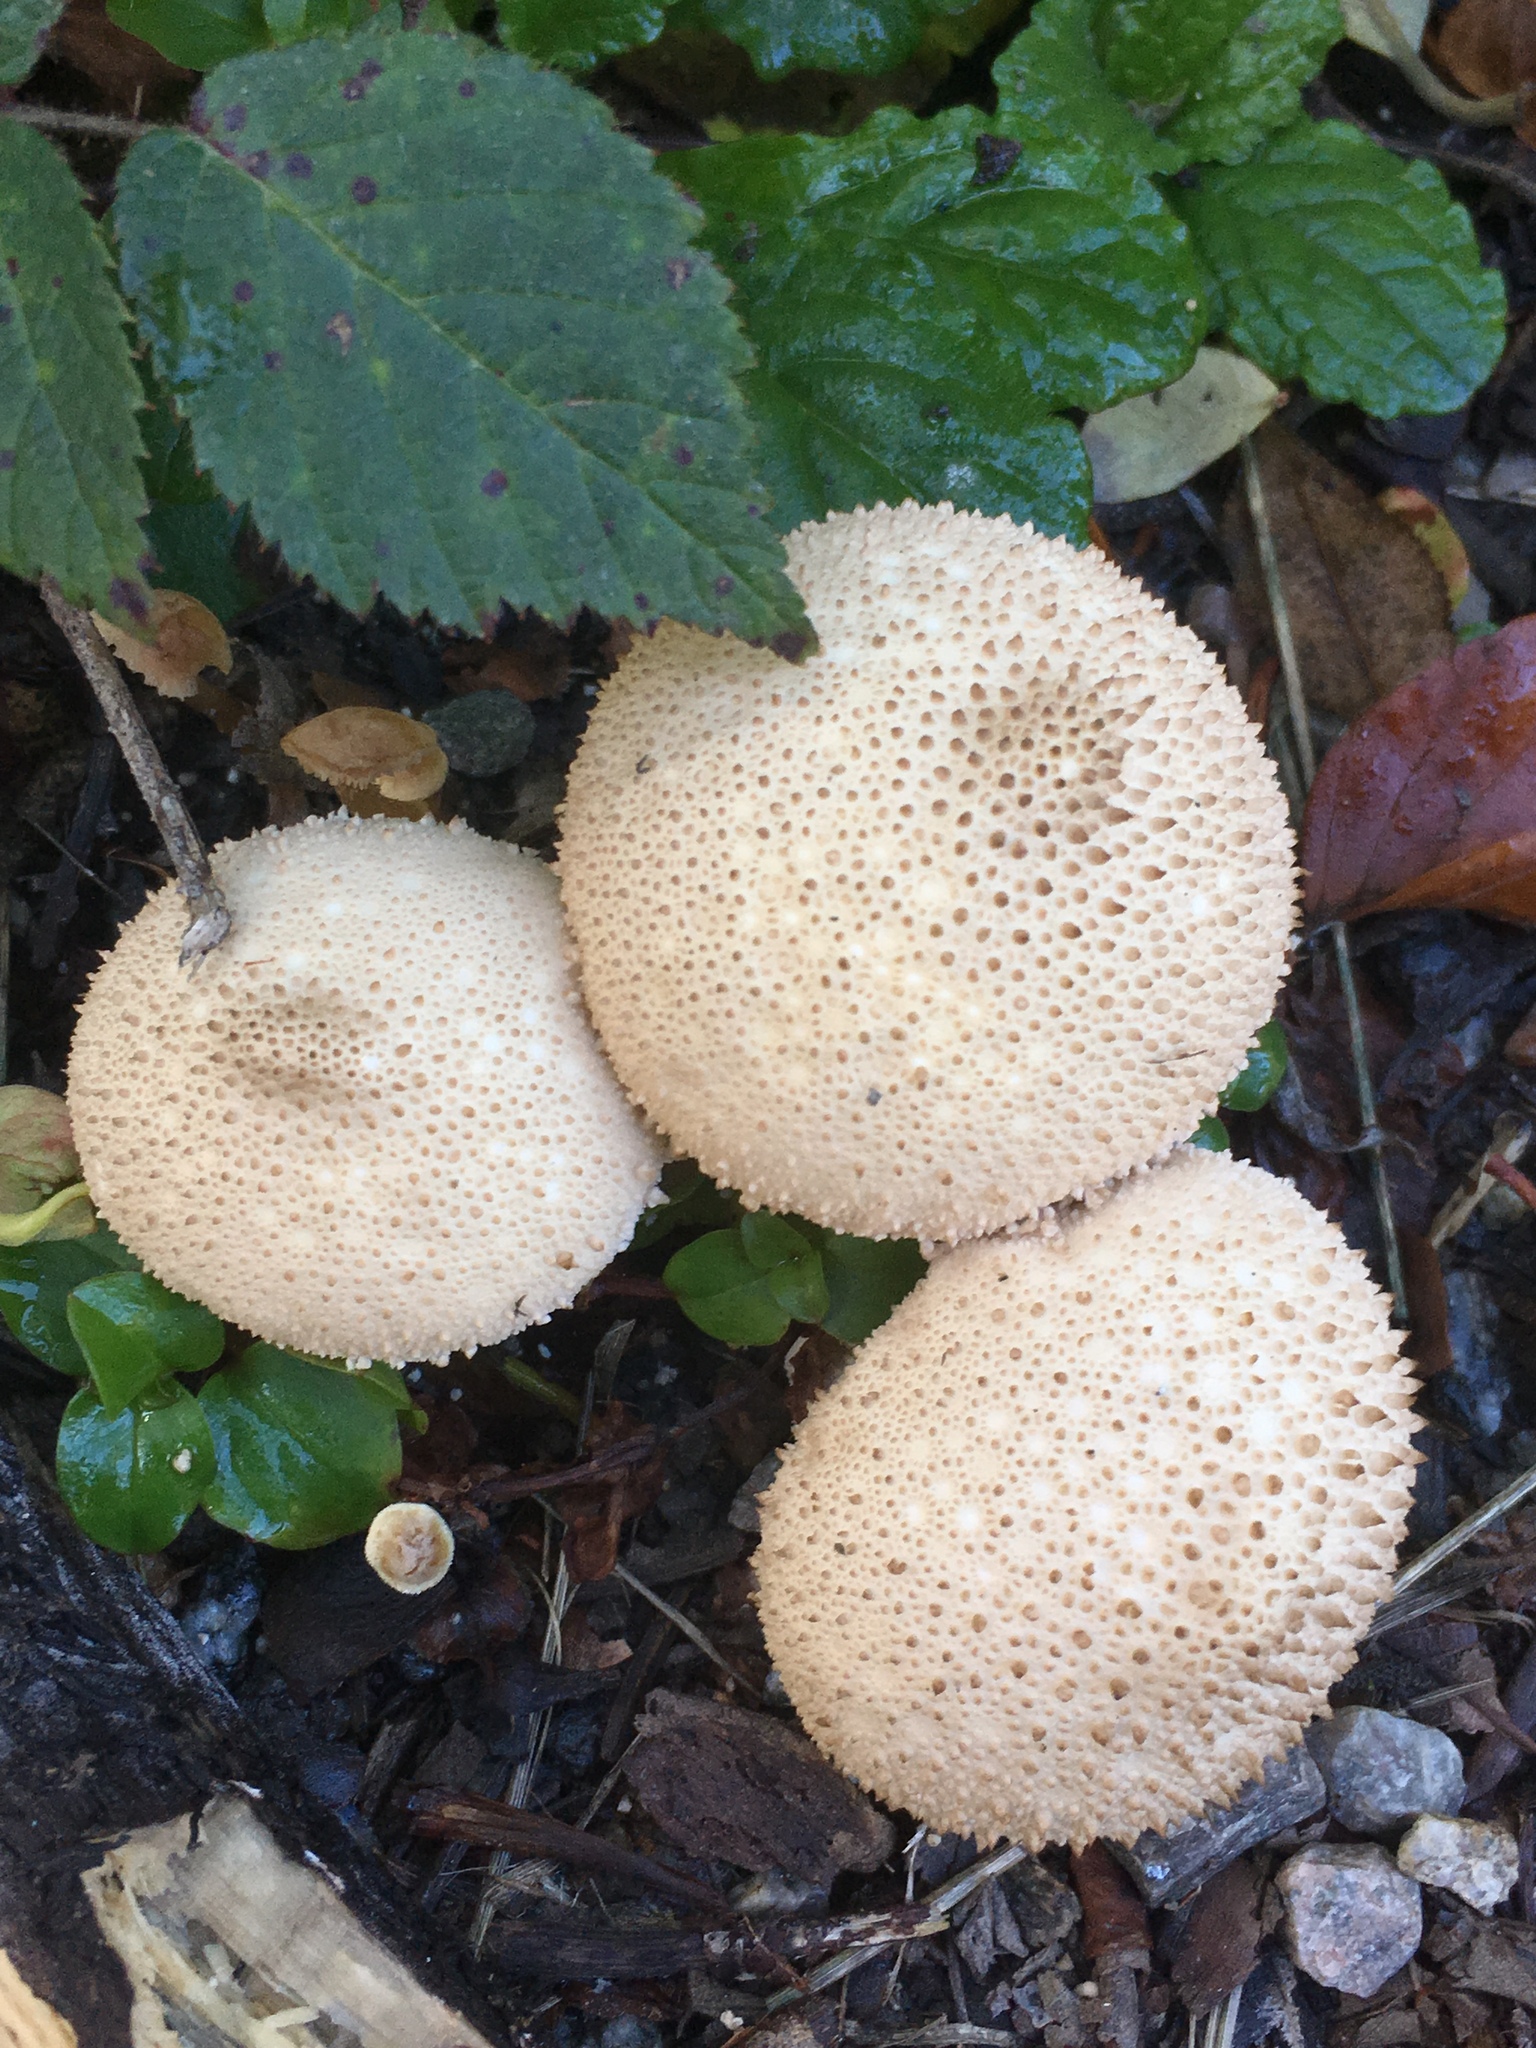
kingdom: Fungi
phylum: Basidiomycota
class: Agaricomycetes
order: Agaricales
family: Lycoperdaceae
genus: Lycoperdon
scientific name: Lycoperdon perlatum
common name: Common puffball
